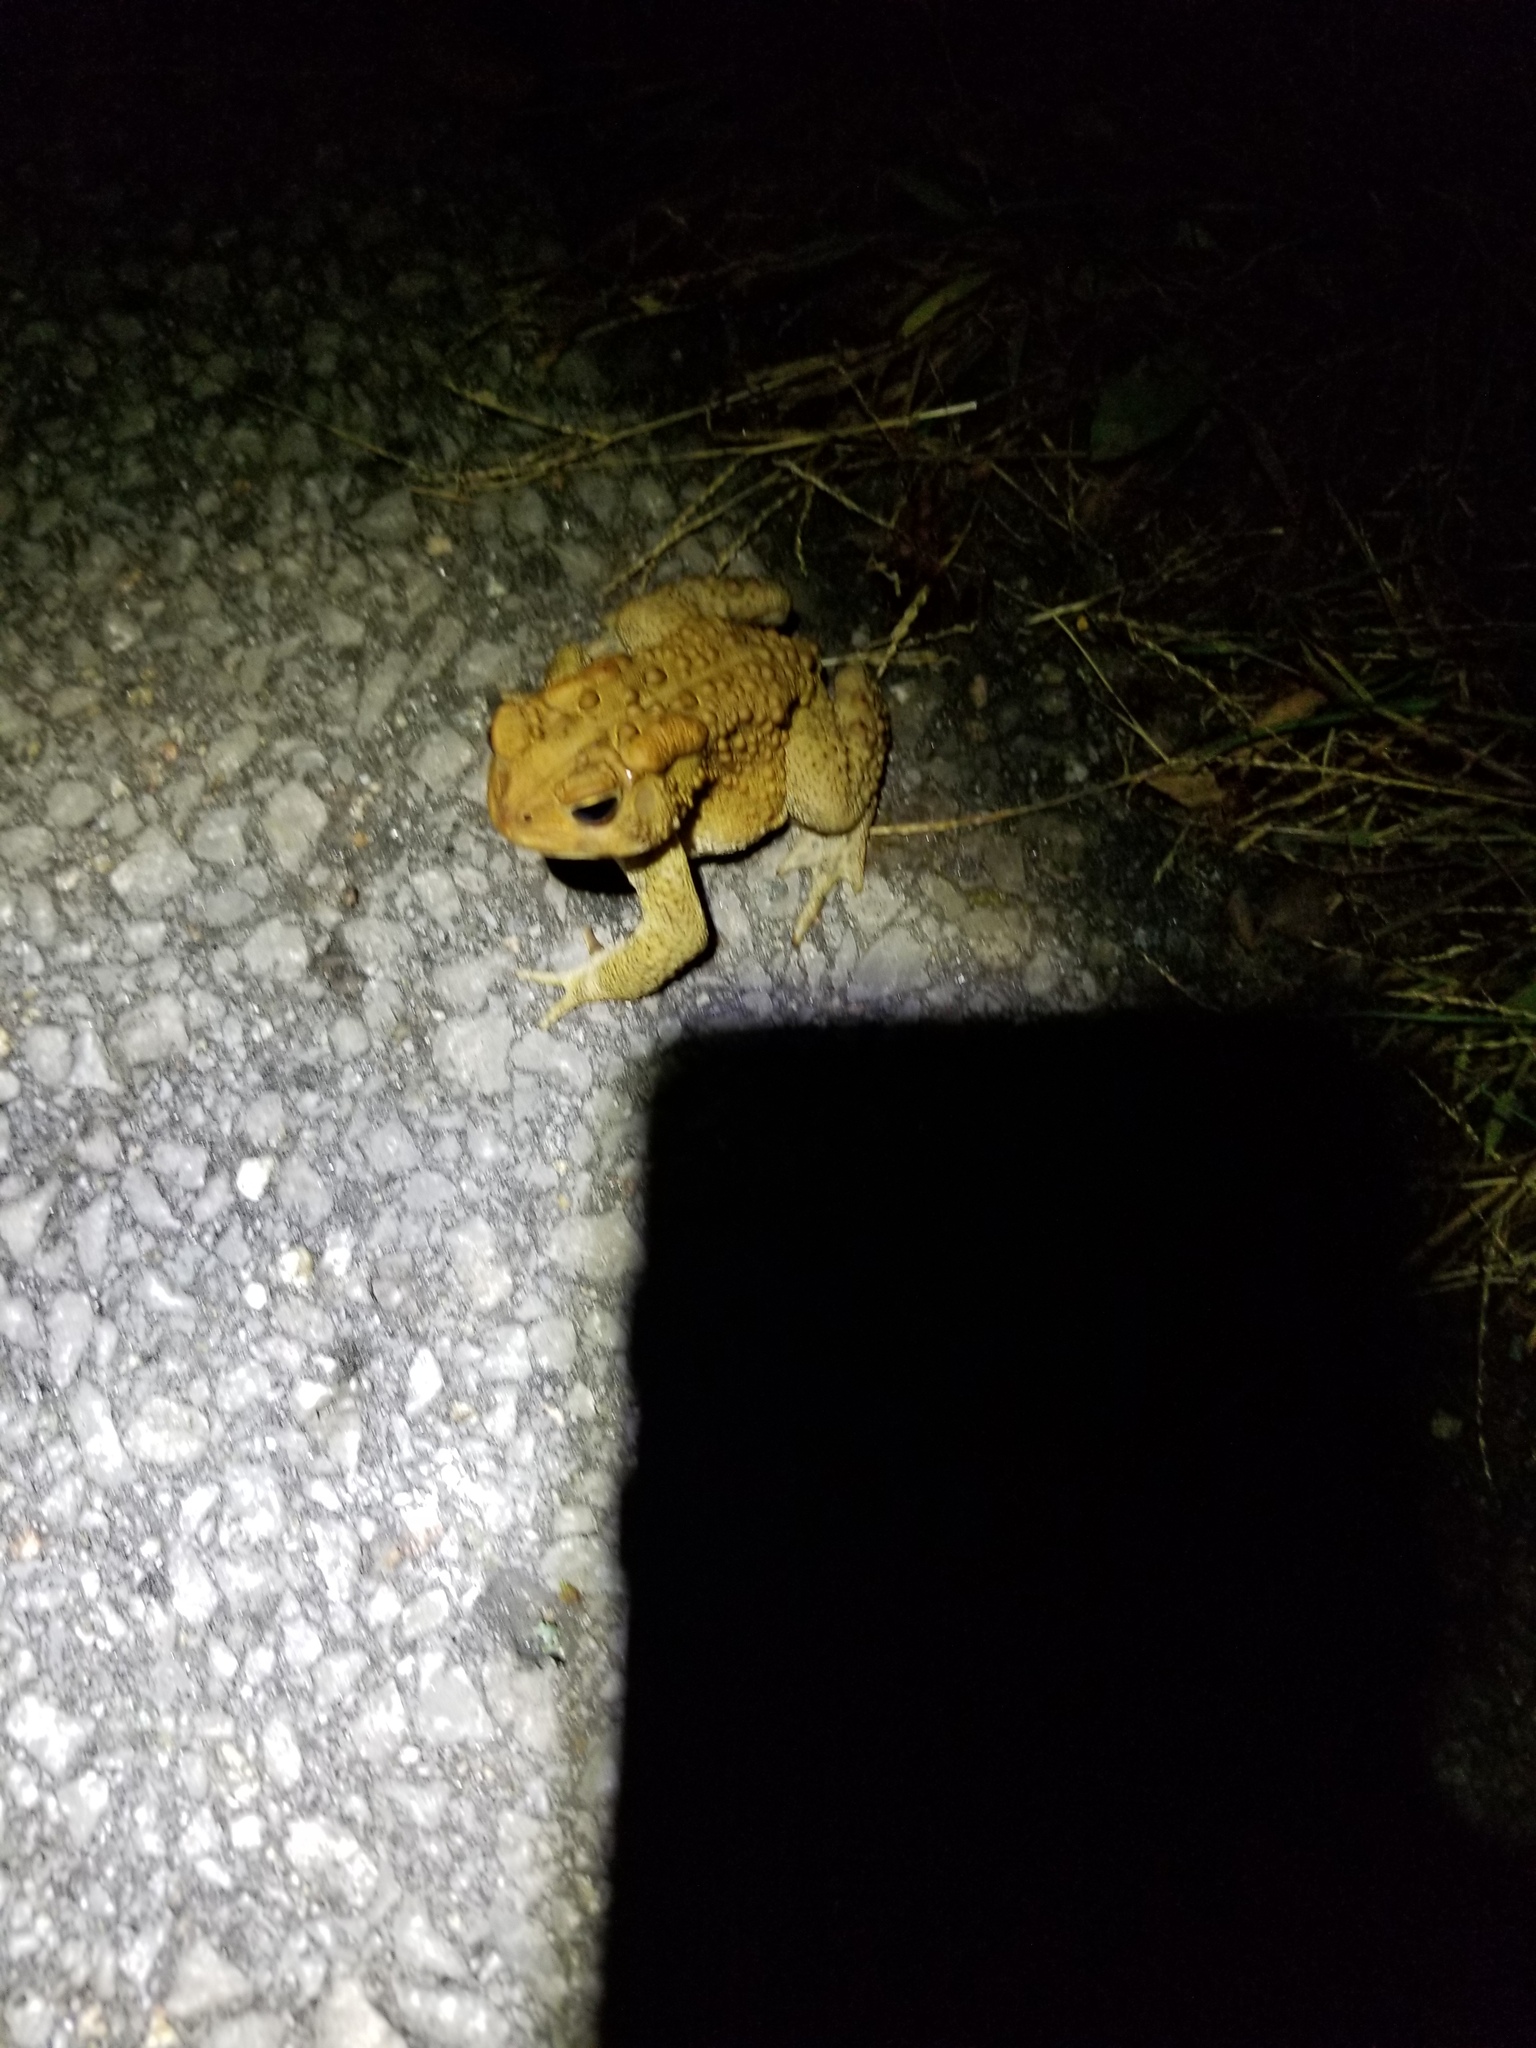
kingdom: Animalia
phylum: Chordata
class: Amphibia
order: Anura
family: Bufonidae
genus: Anaxyrus
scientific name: Anaxyrus americanus
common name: American toad
